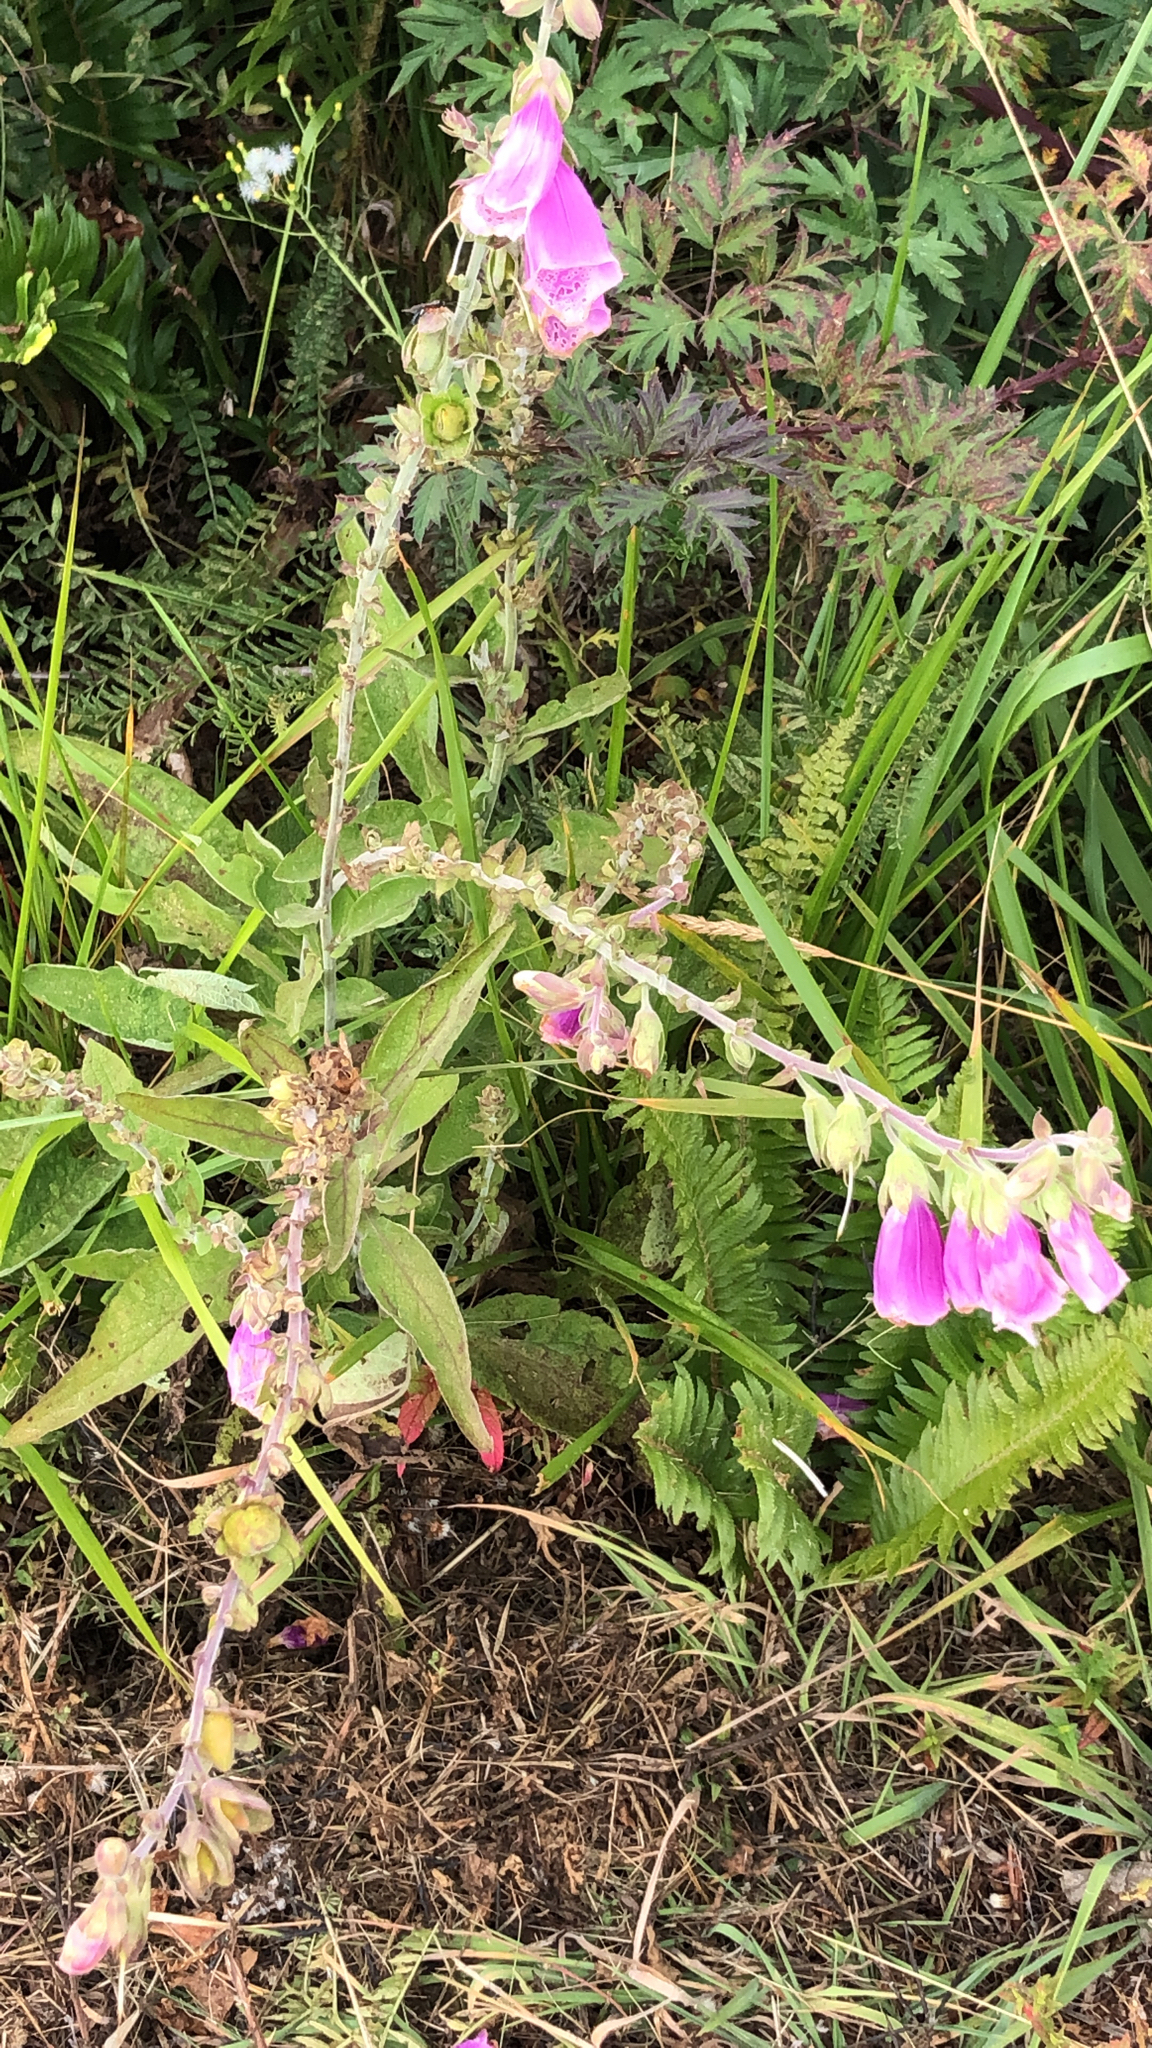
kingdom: Plantae
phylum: Tracheophyta
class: Magnoliopsida
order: Lamiales
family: Plantaginaceae
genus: Digitalis
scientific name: Digitalis purpurea
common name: Foxglove
